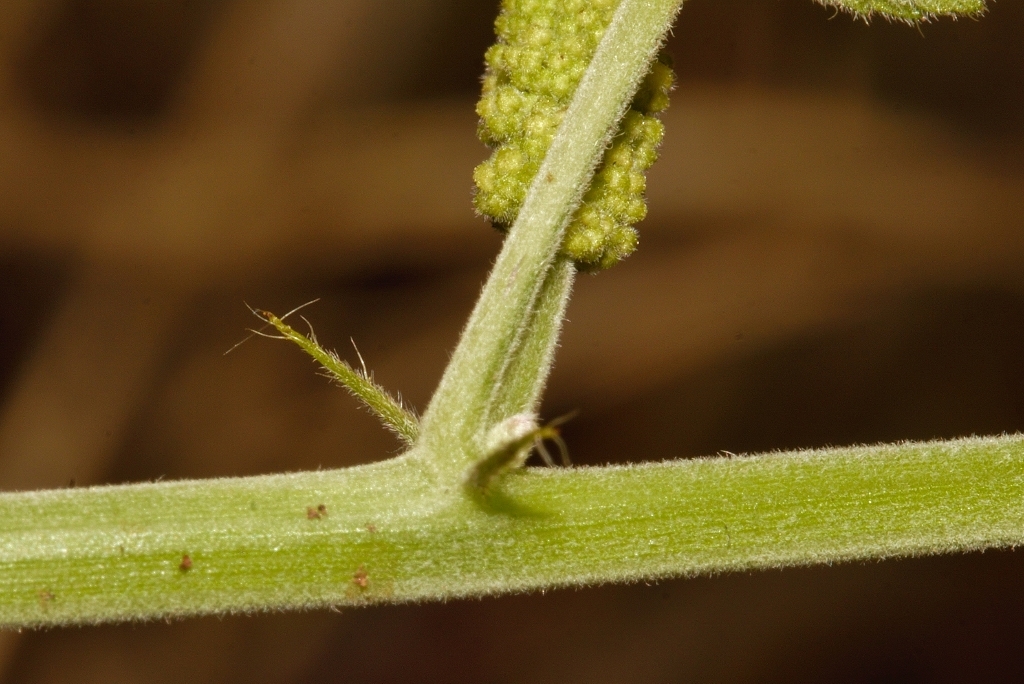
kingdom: Plantae
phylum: Tracheophyta
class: Magnoliopsida
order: Malpighiales
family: Euphorbiaceae
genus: Acalypha
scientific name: Acalypha petiolaris
